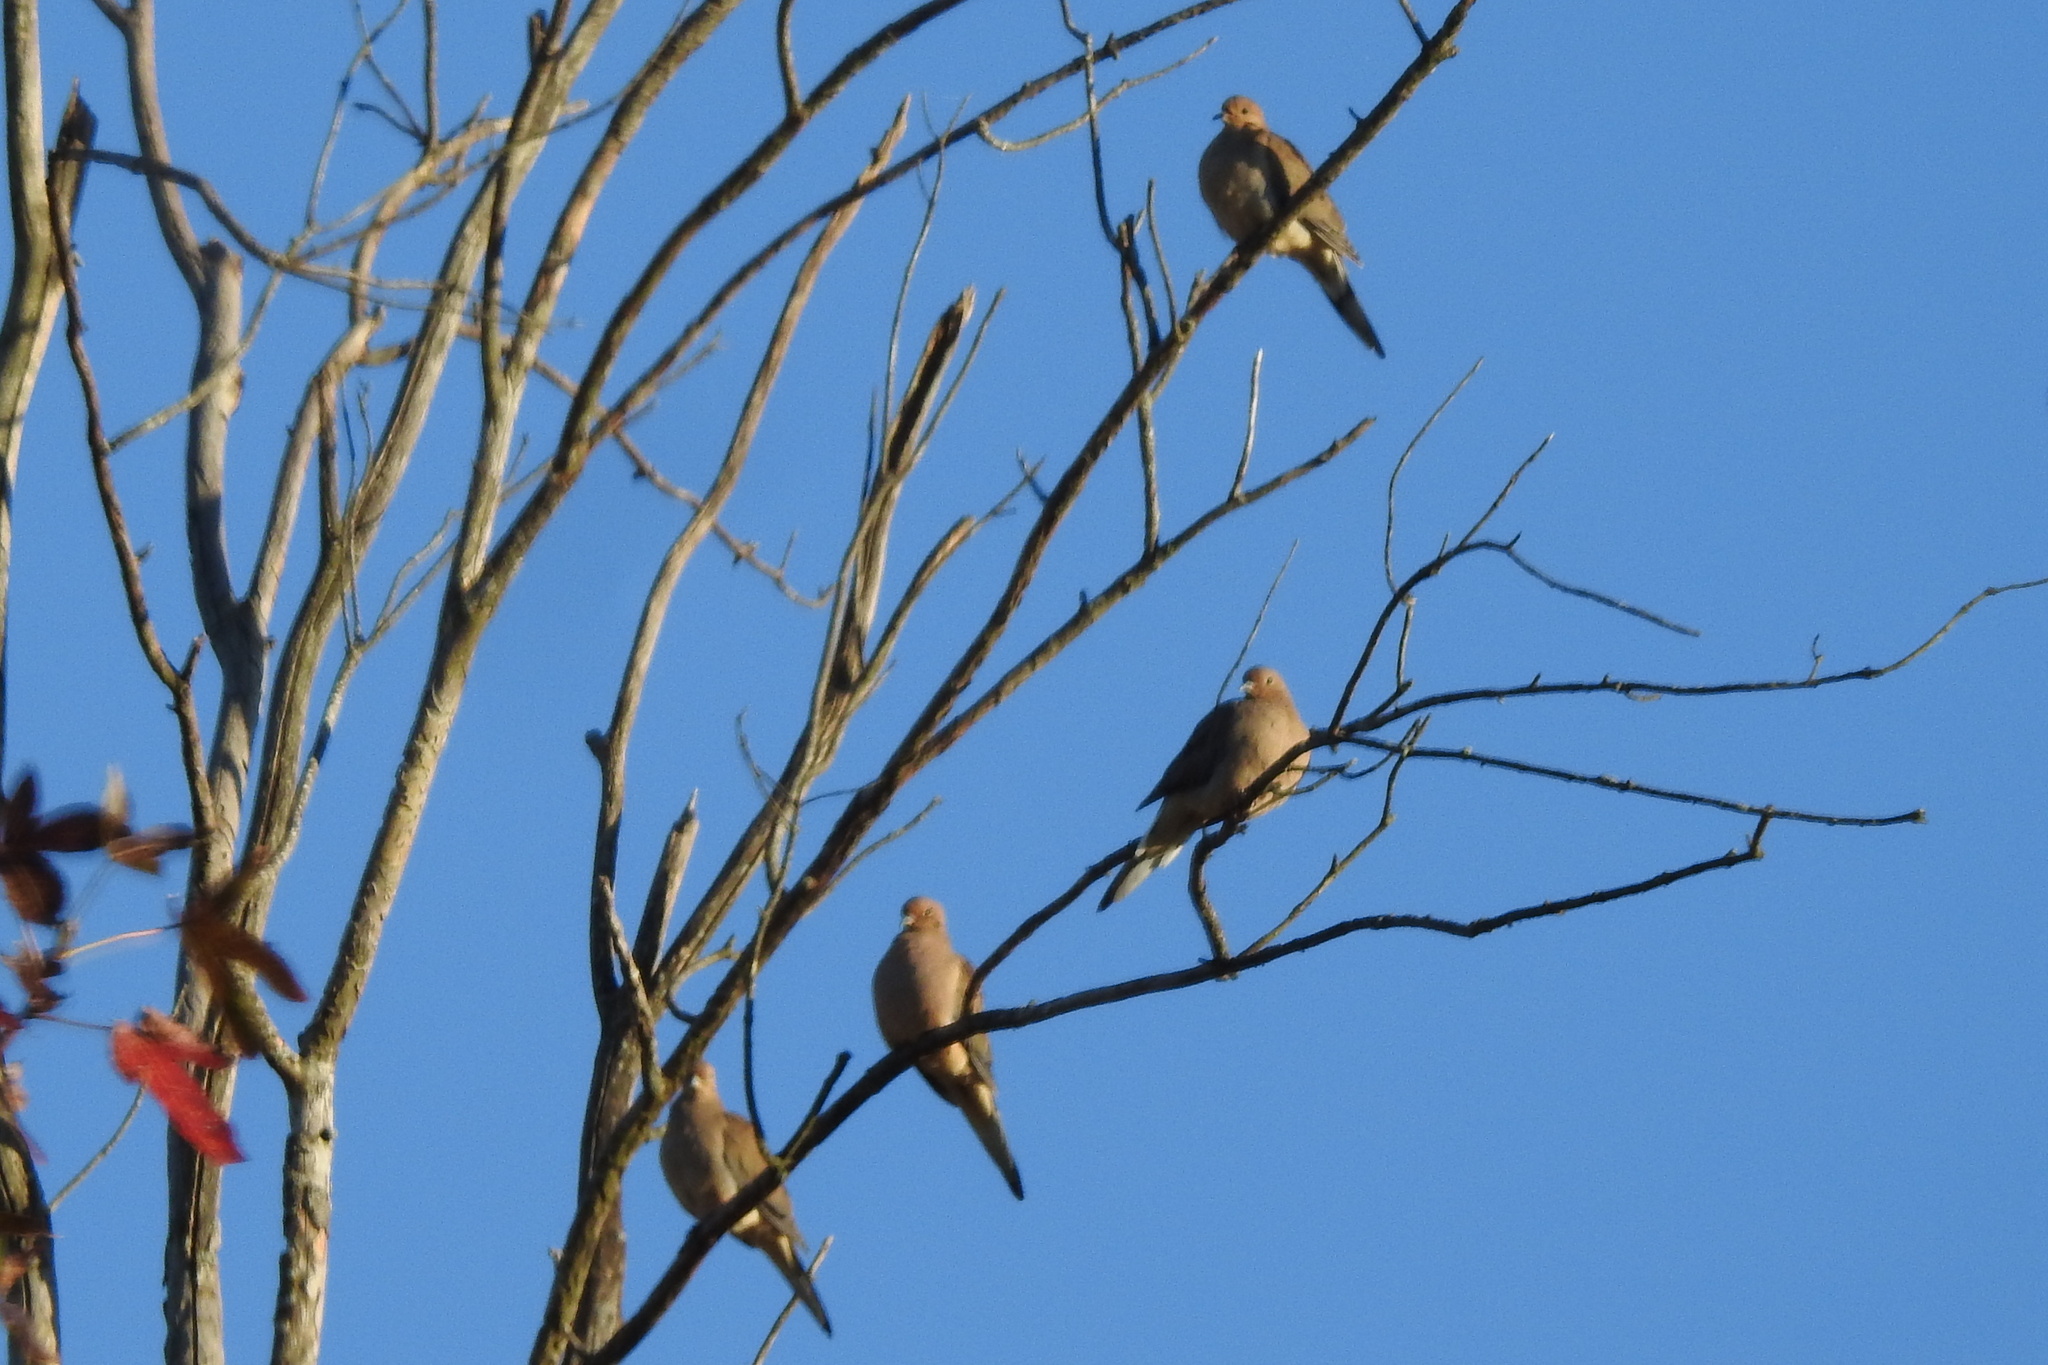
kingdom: Animalia
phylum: Chordata
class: Aves
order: Columbiformes
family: Columbidae
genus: Zenaida
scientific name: Zenaida macroura
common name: Mourning dove
